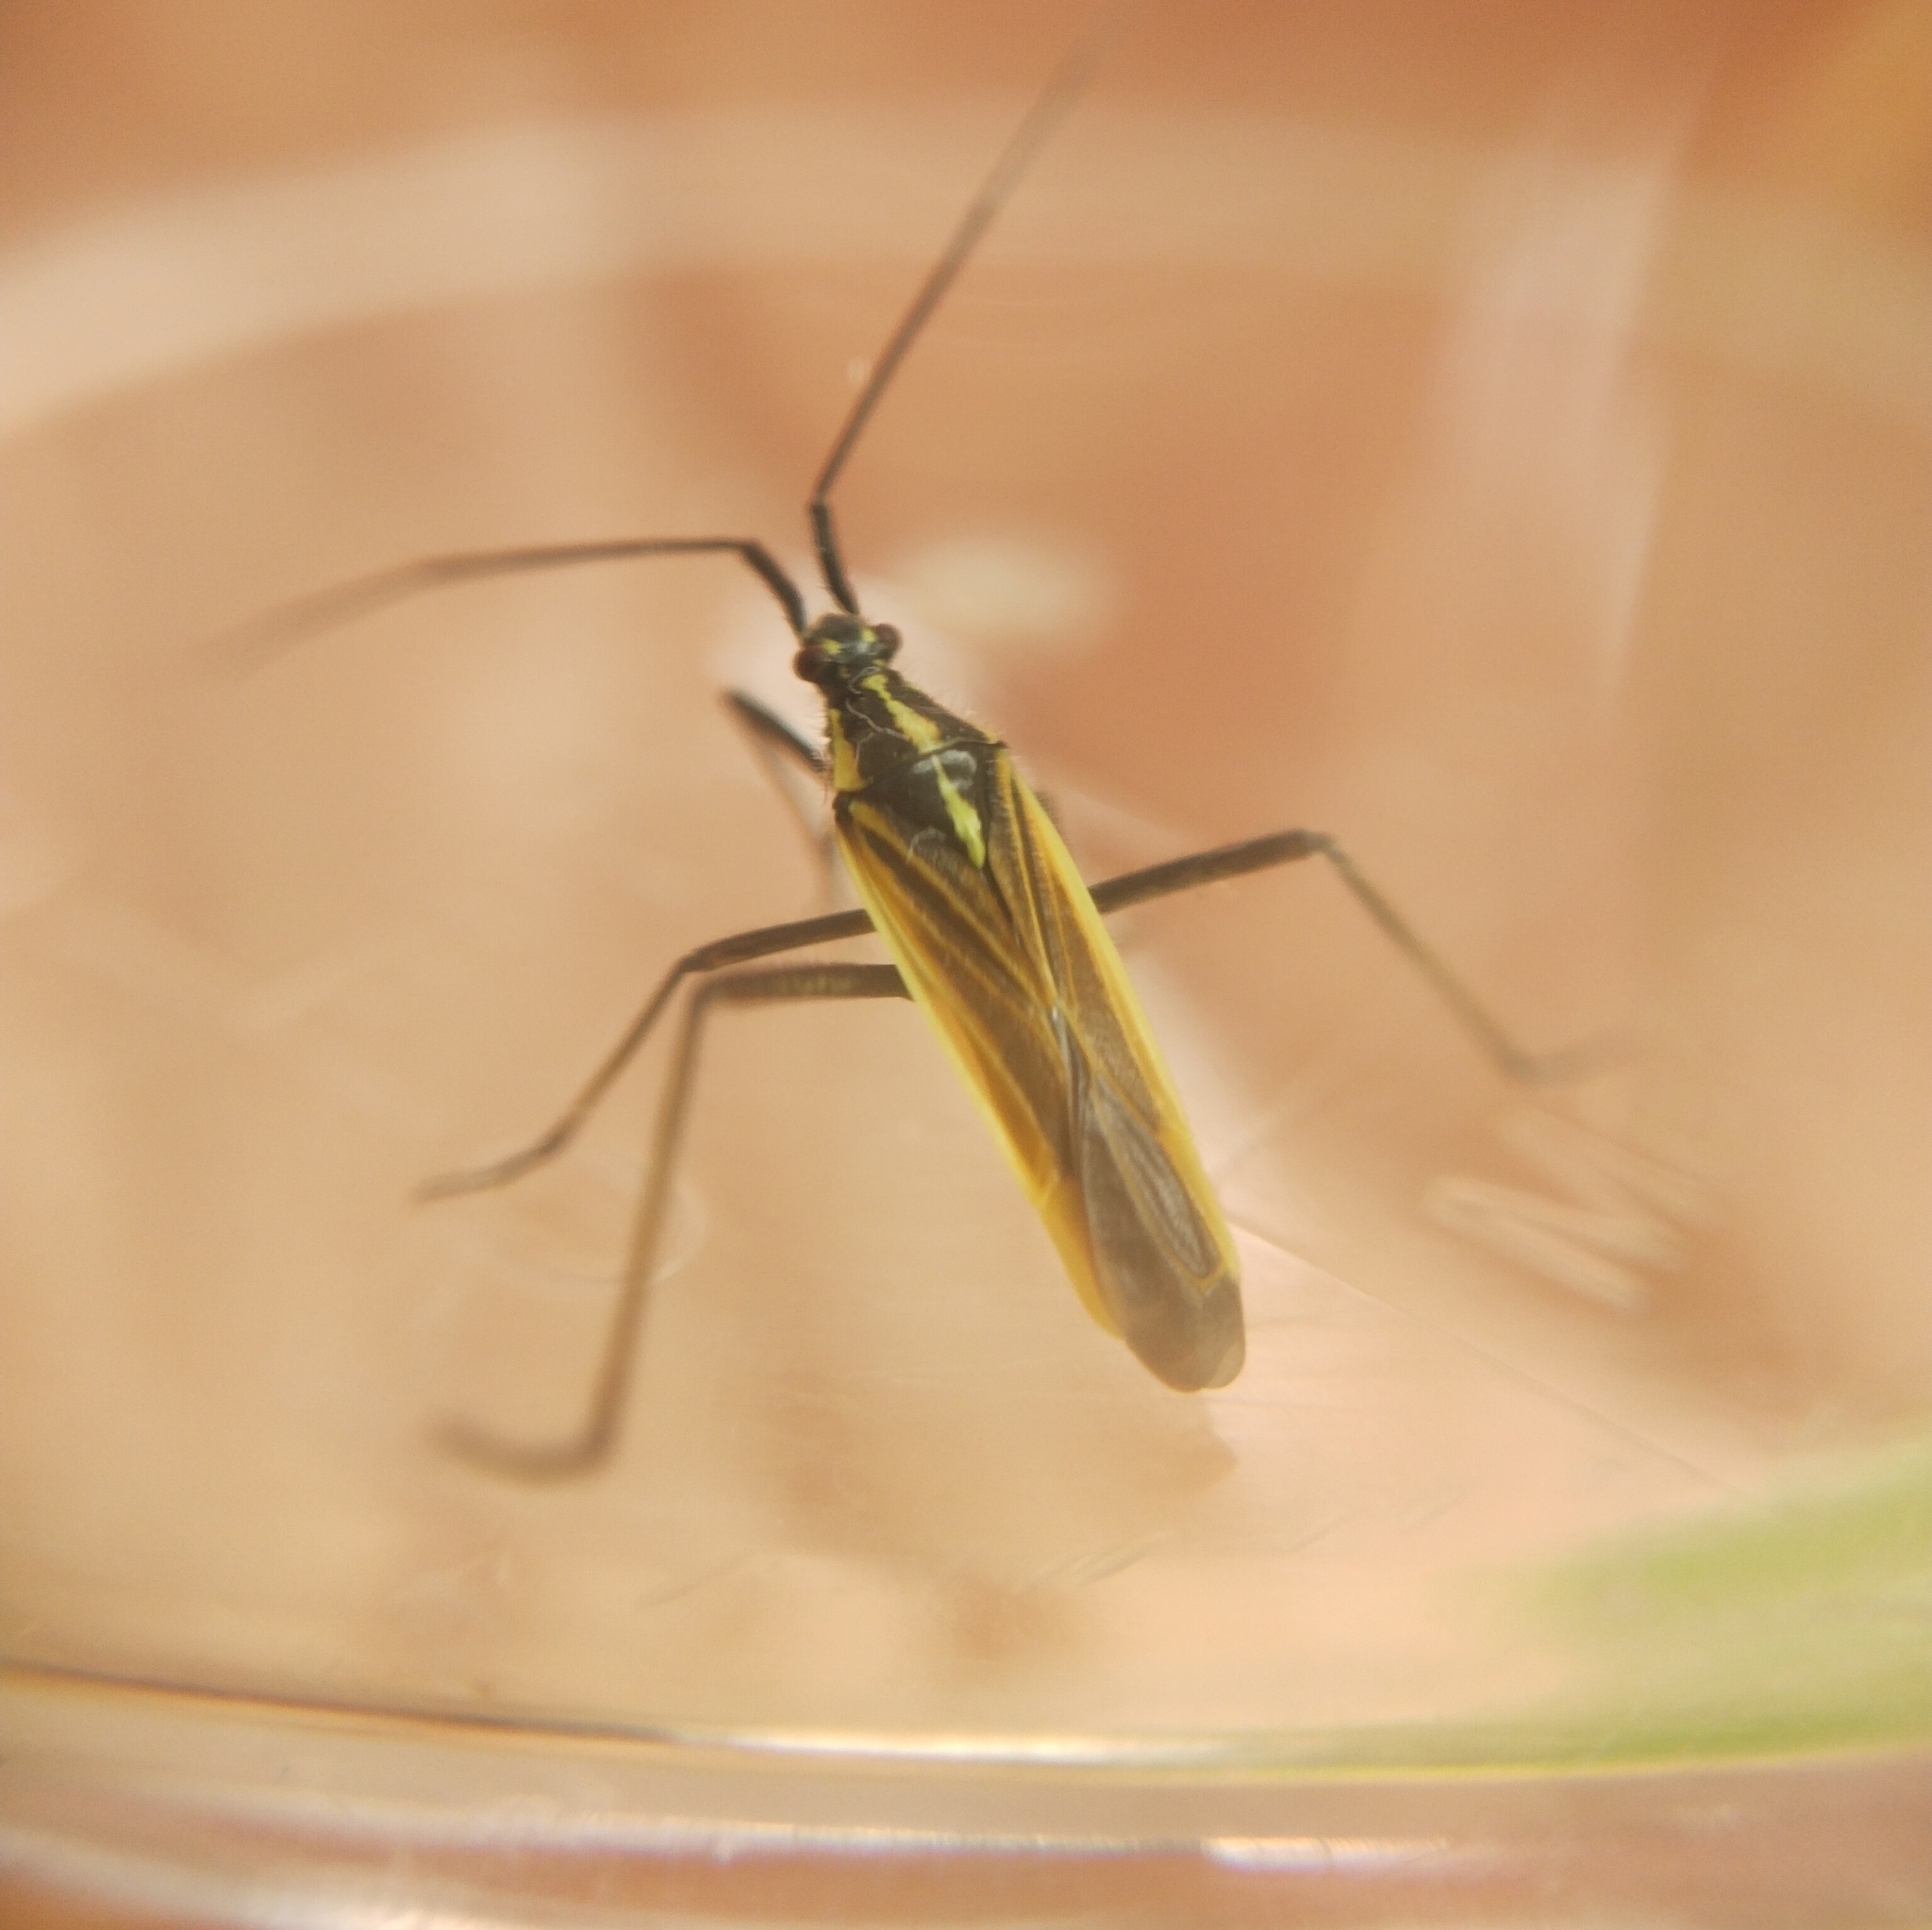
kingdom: Animalia
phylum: Arthropoda
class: Insecta
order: Hemiptera
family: Miridae
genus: Leptopterna
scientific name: Leptopterna dolabrata
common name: Meadow plant bug
